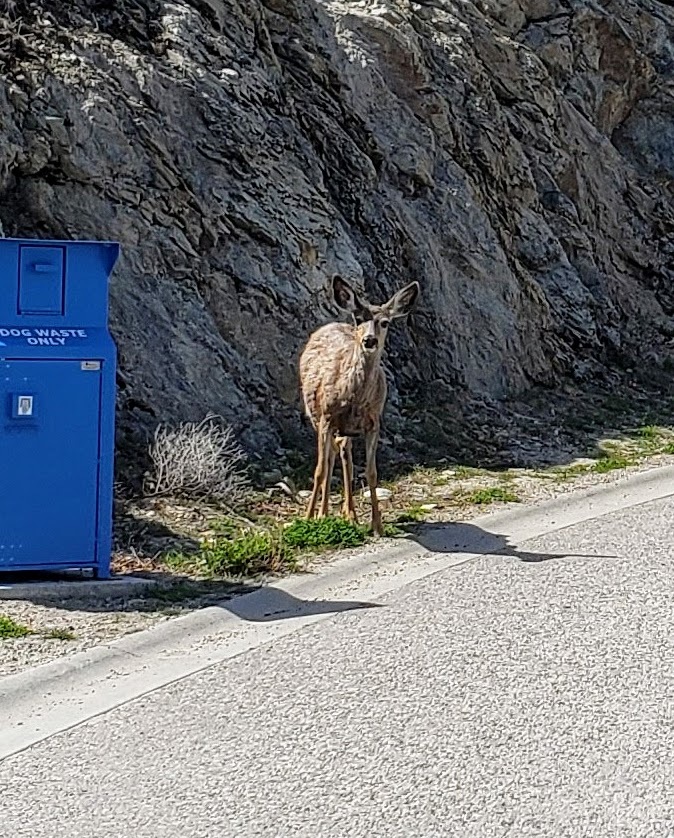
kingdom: Animalia
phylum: Chordata
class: Mammalia
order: Artiodactyla
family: Cervidae
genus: Odocoileus
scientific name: Odocoileus hemionus
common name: Mule deer
